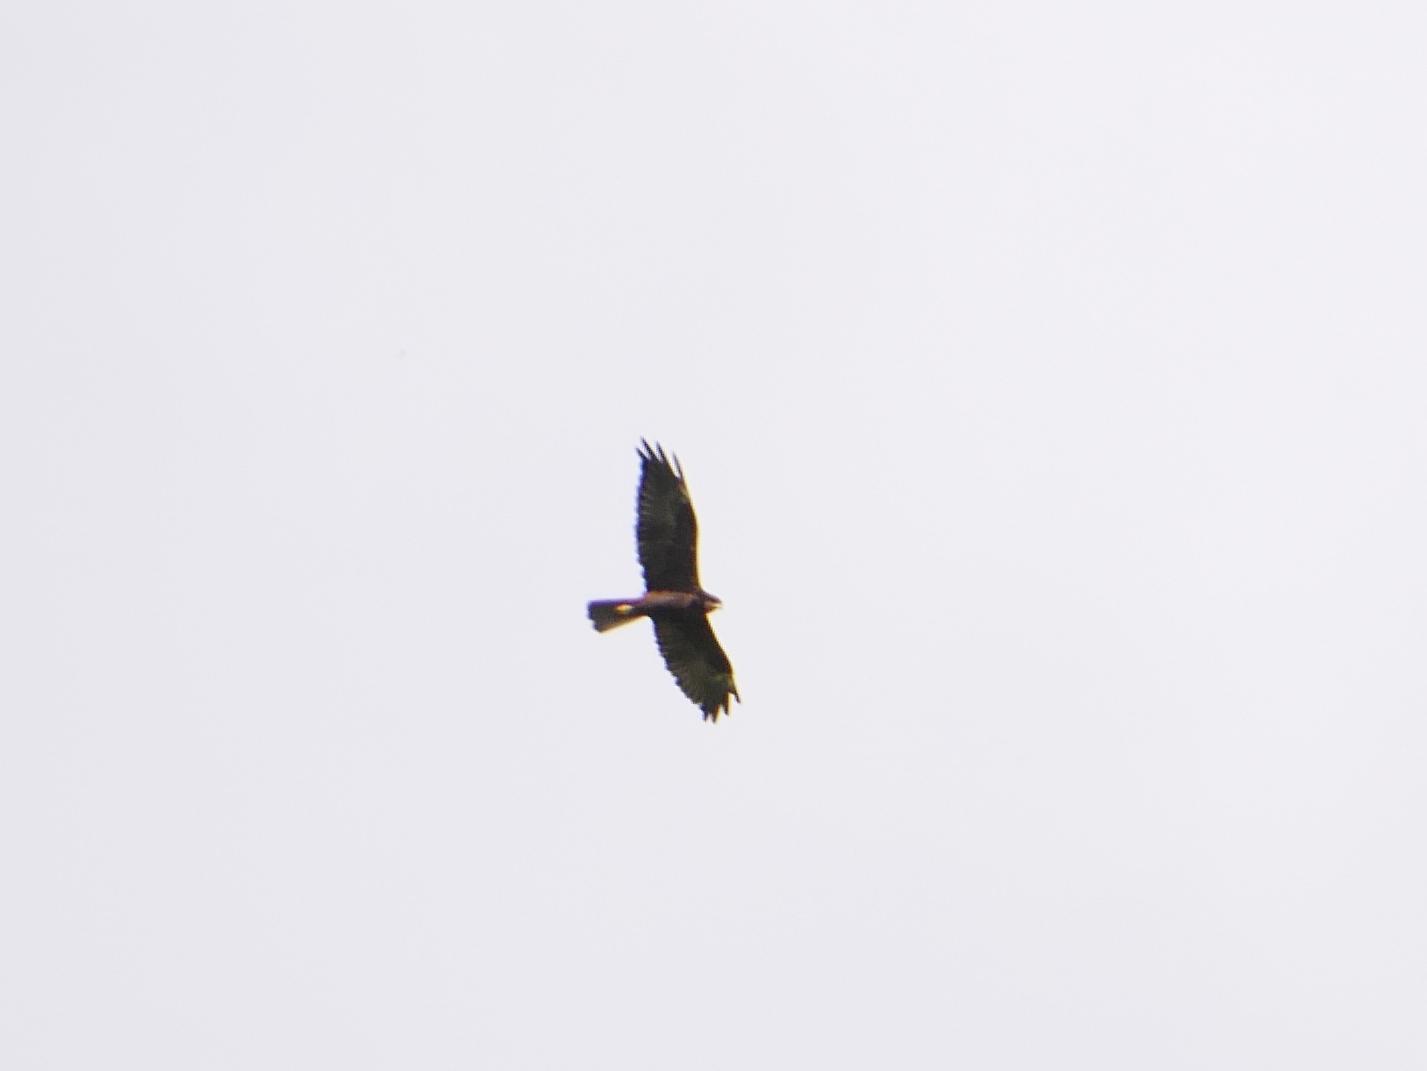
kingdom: Animalia
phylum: Chordata
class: Aves
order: Accipitriformes
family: Accipitridae
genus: Circus
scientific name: Circus aeruginosus
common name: Western marsh harrier
